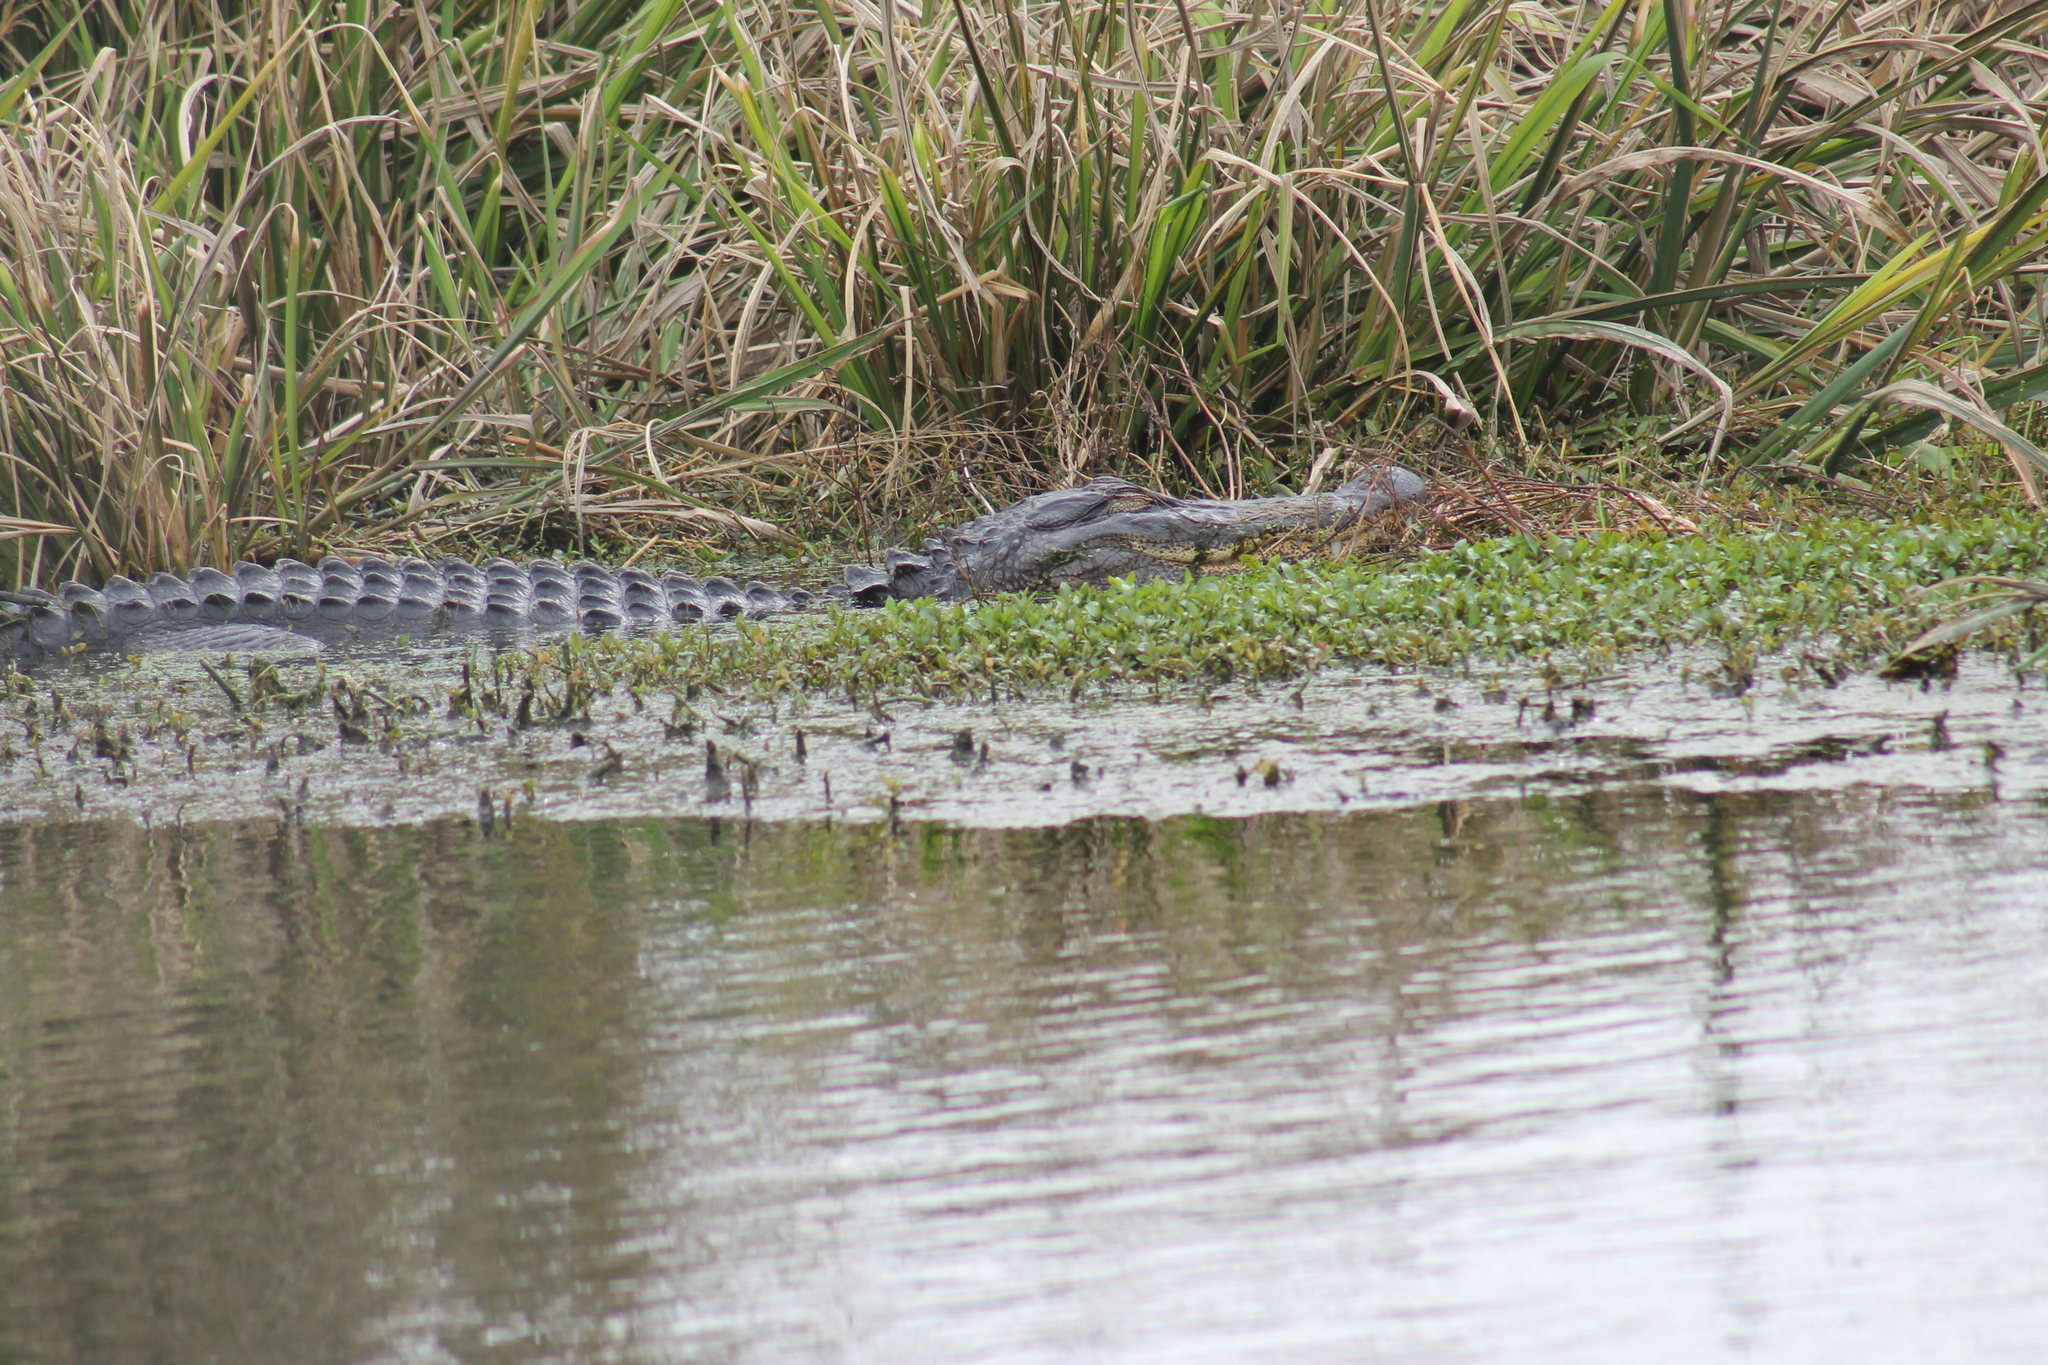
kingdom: Animalia
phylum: Chordata
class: Crocodylia
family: Alligatoridae
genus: Alligator
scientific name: Alligator mississippiensis
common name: American alligator
